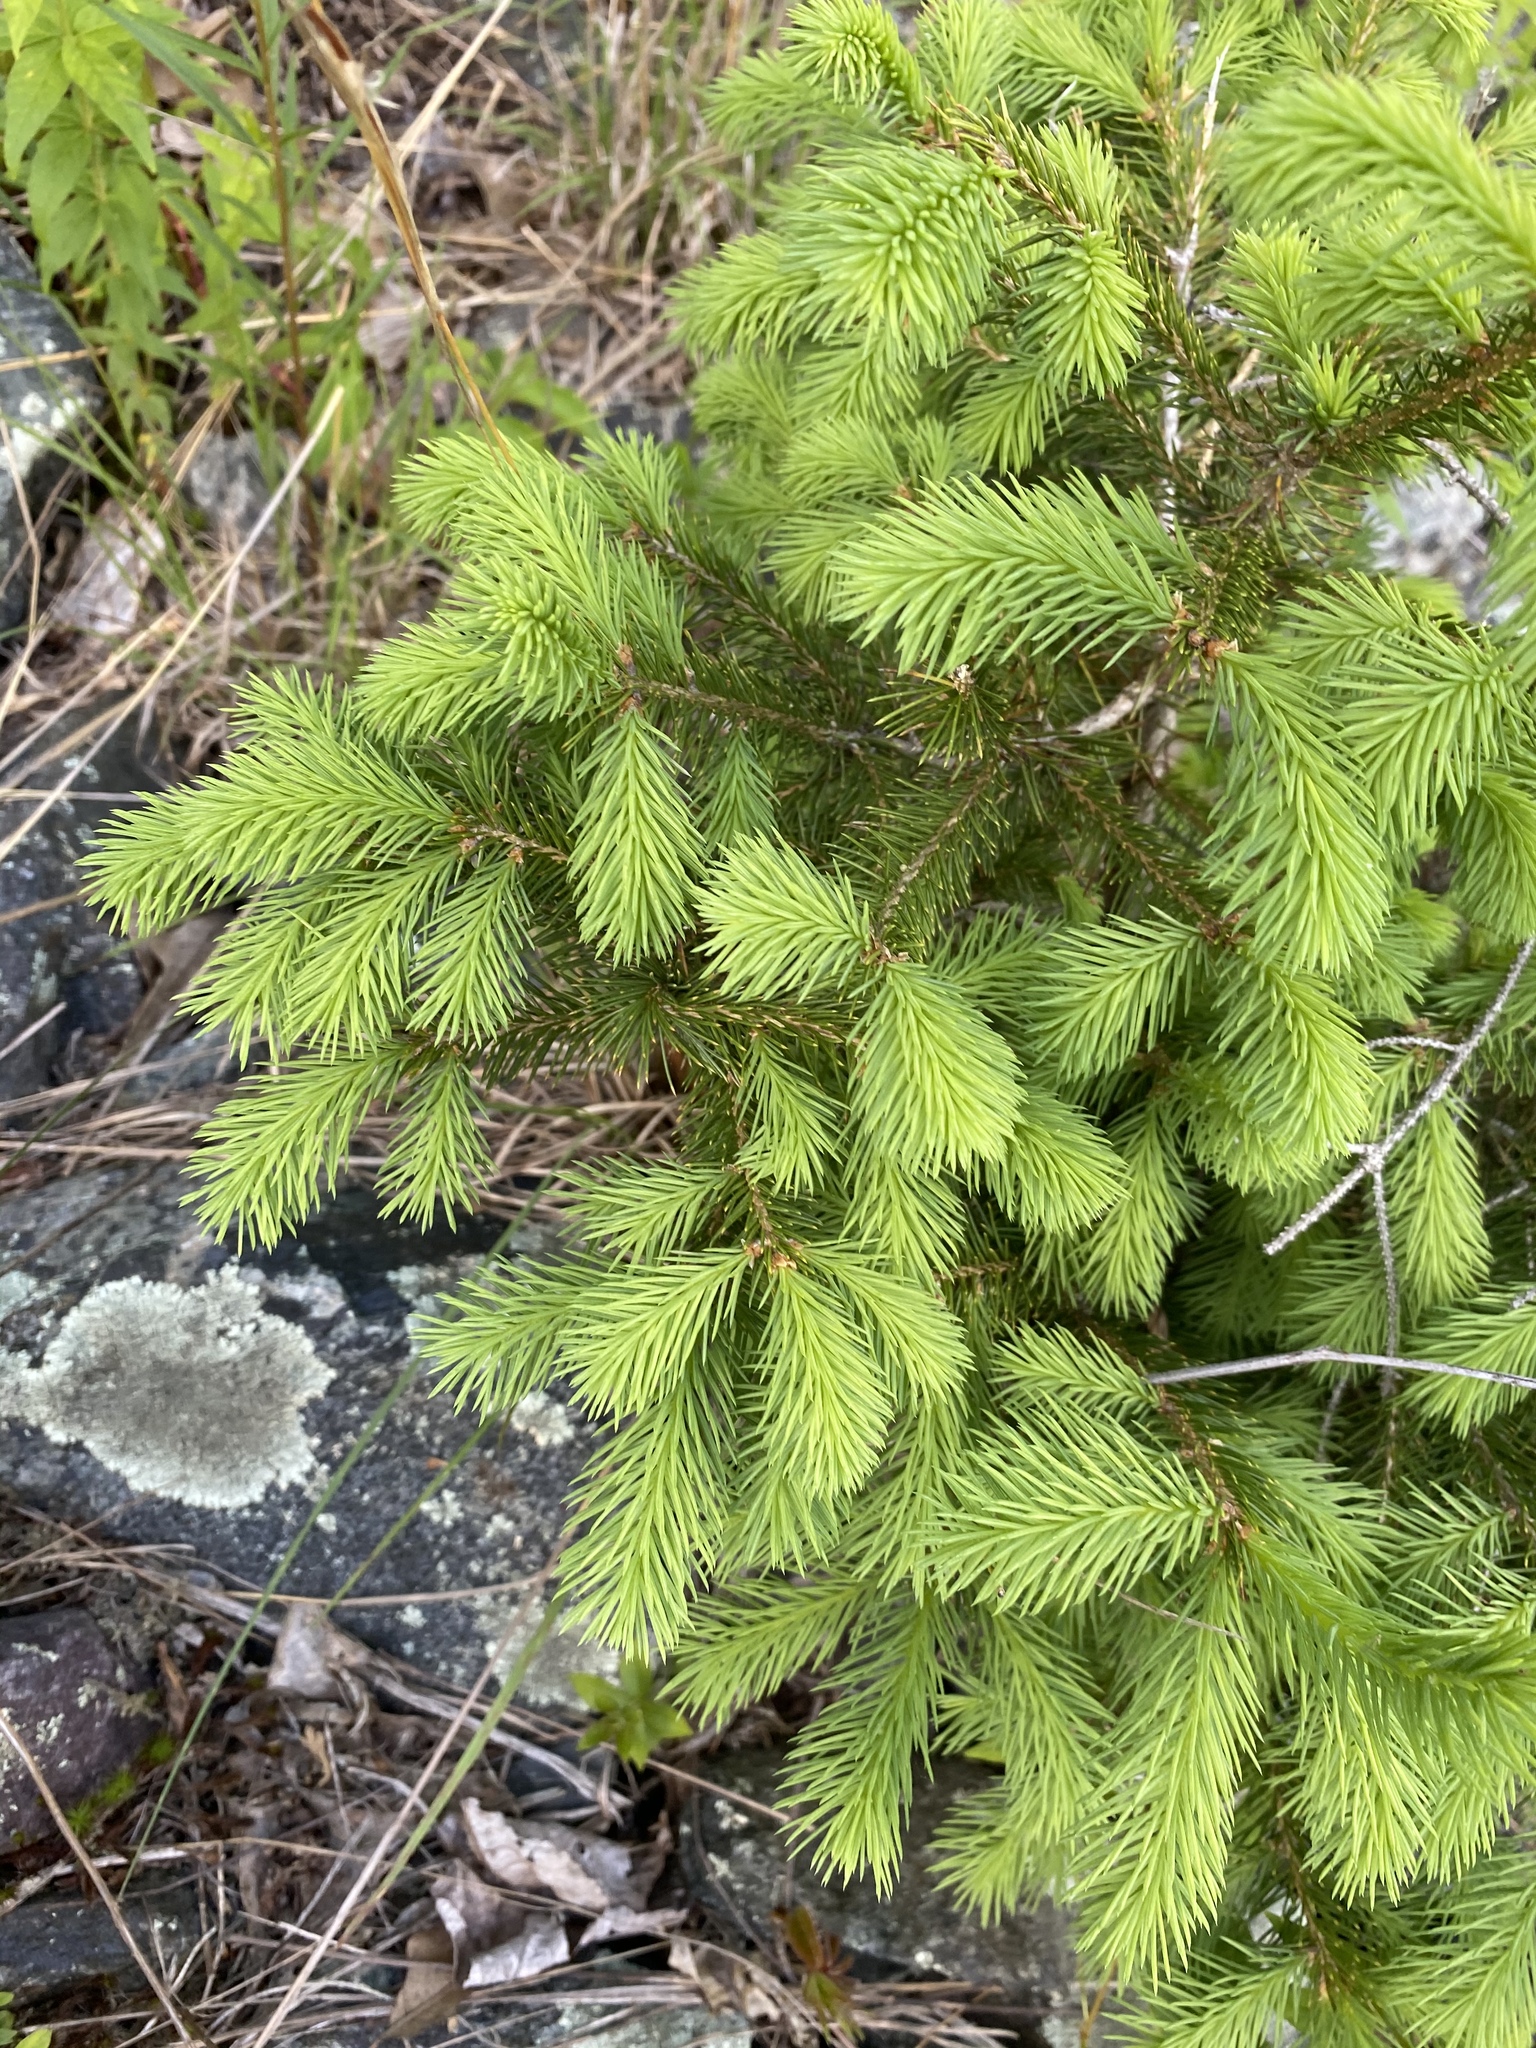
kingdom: Plantae
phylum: Tracheophyta
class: Pinopsida
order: Pinales
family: Pinaceae
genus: Picea
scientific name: Picea abies
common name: Norway spruce
